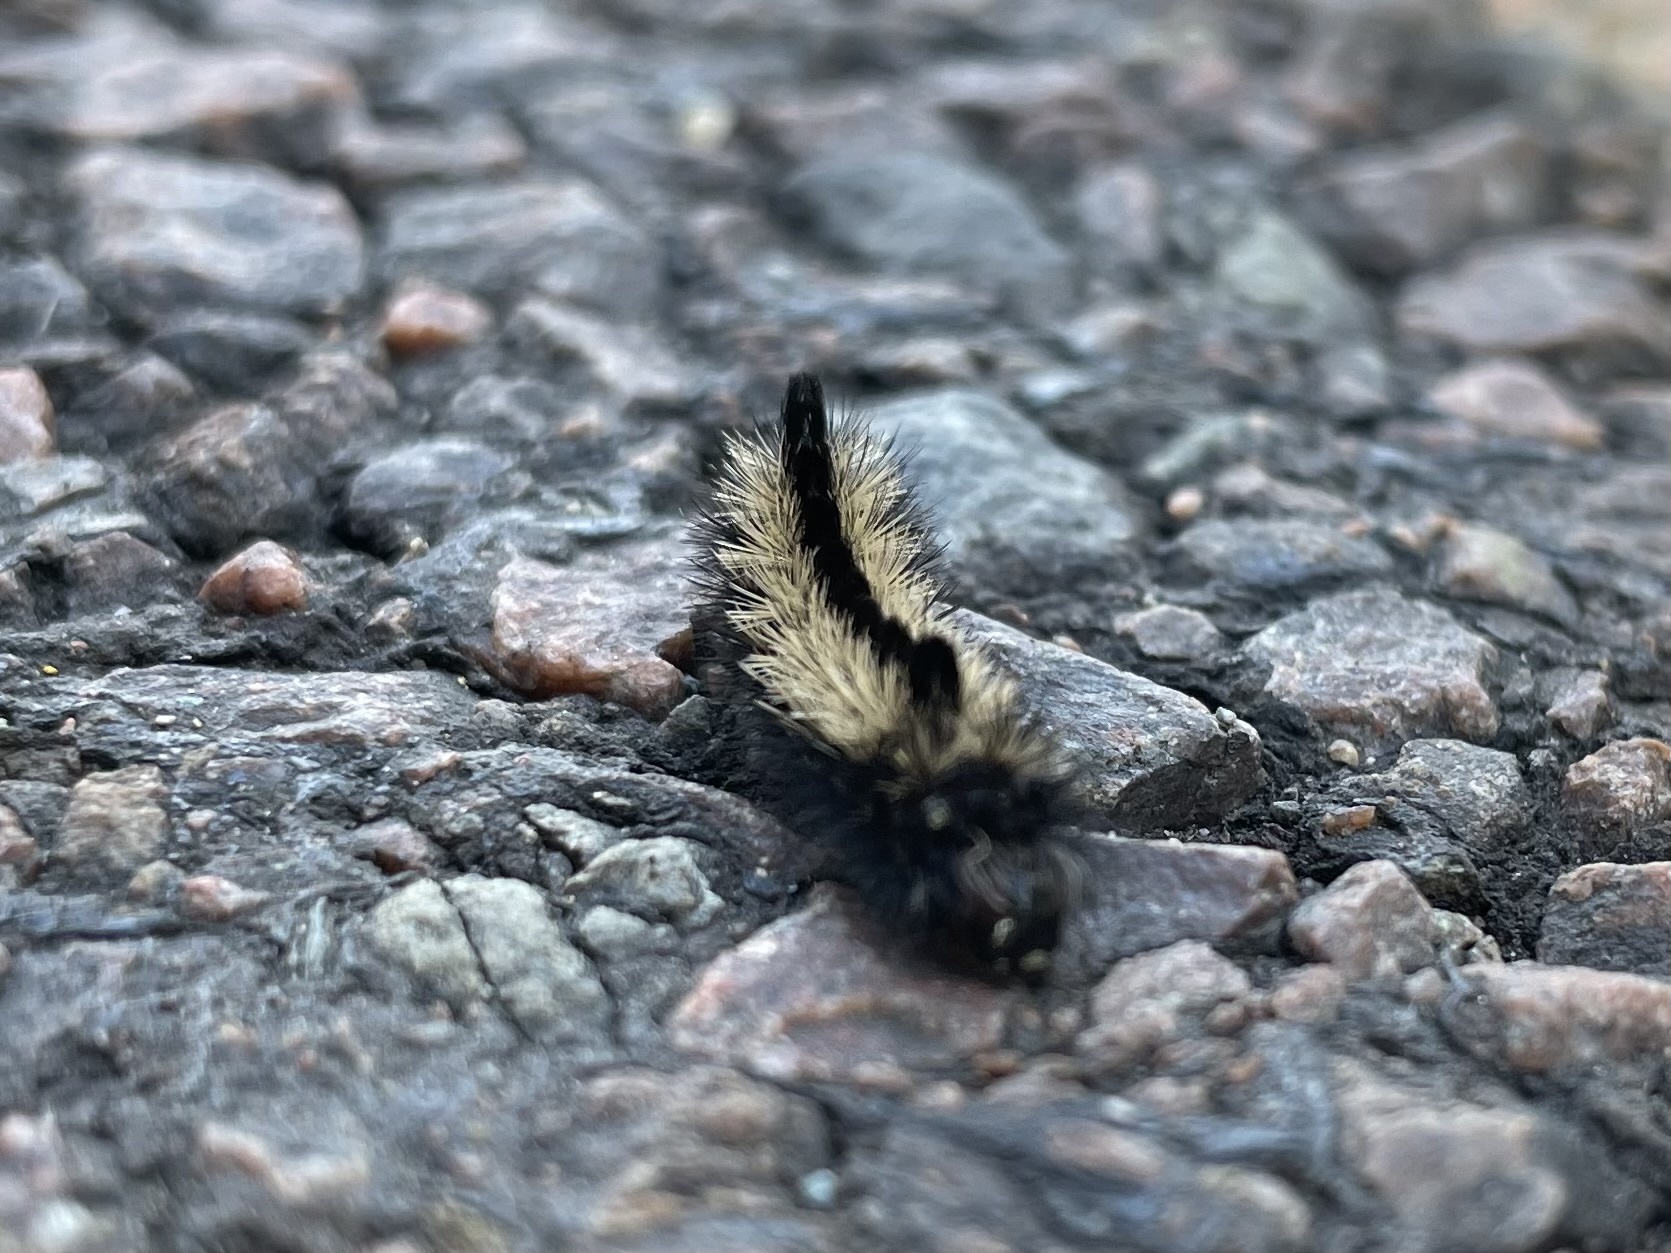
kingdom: Animalia
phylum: Arthropoda
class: Insecta
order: Lepidoptera
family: Erebidae
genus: Ctenucha
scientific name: Ctenucha virginica
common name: Virginia ctenucha moth
